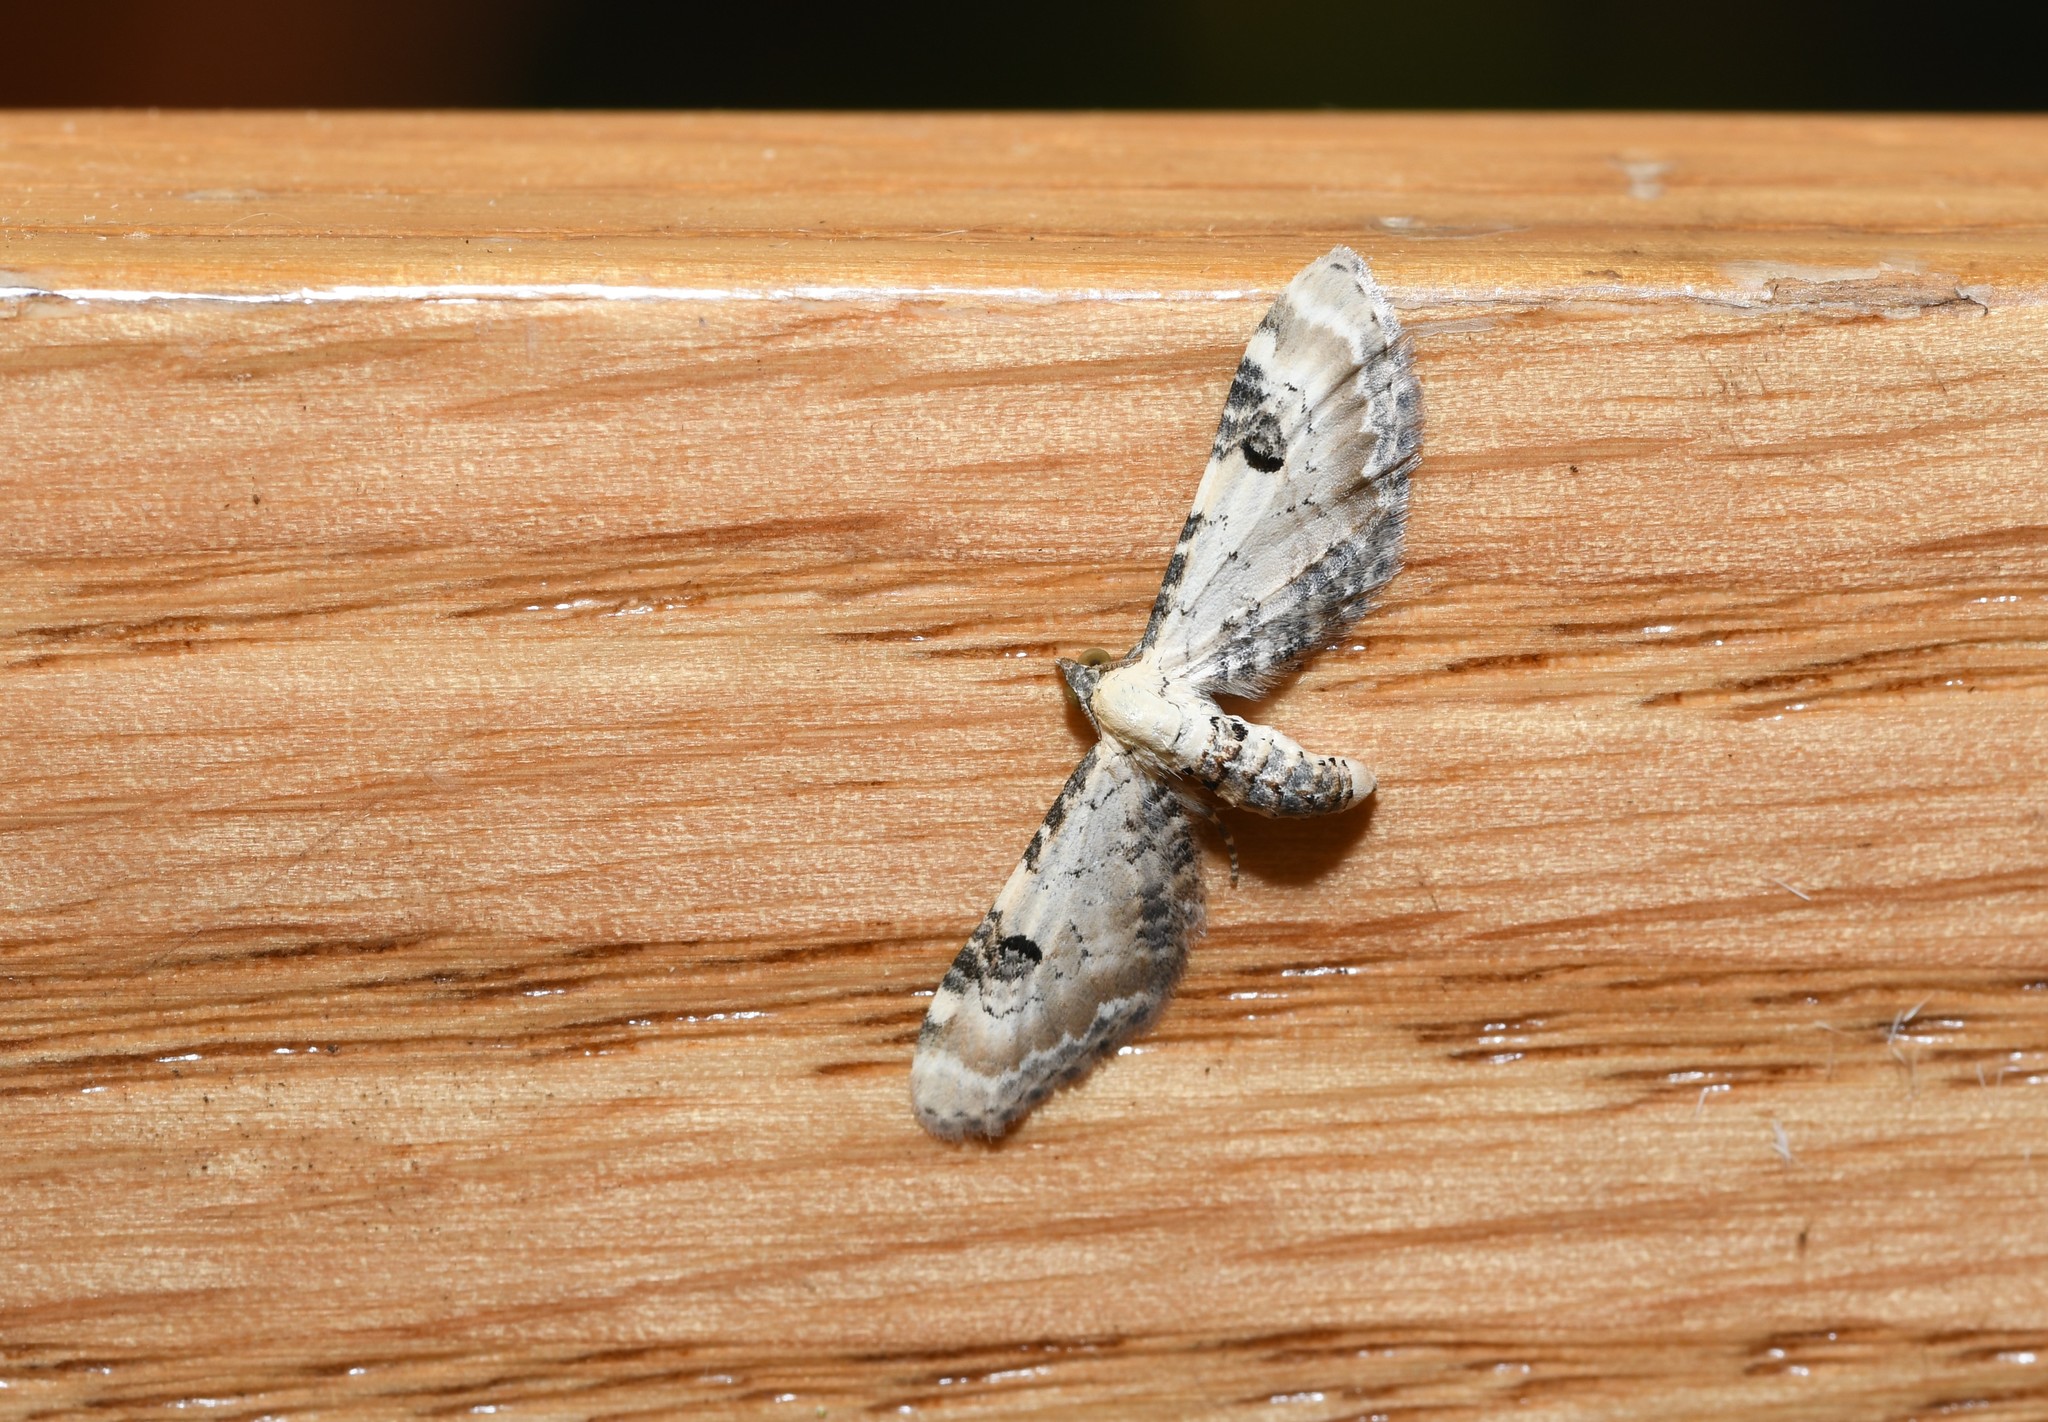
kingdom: Animalia
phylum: Arthropoda
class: Insecta
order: Lepidoptera
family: Geometridae
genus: Eupithecia
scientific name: Eupithecia centaureata
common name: Lime-speck pug
